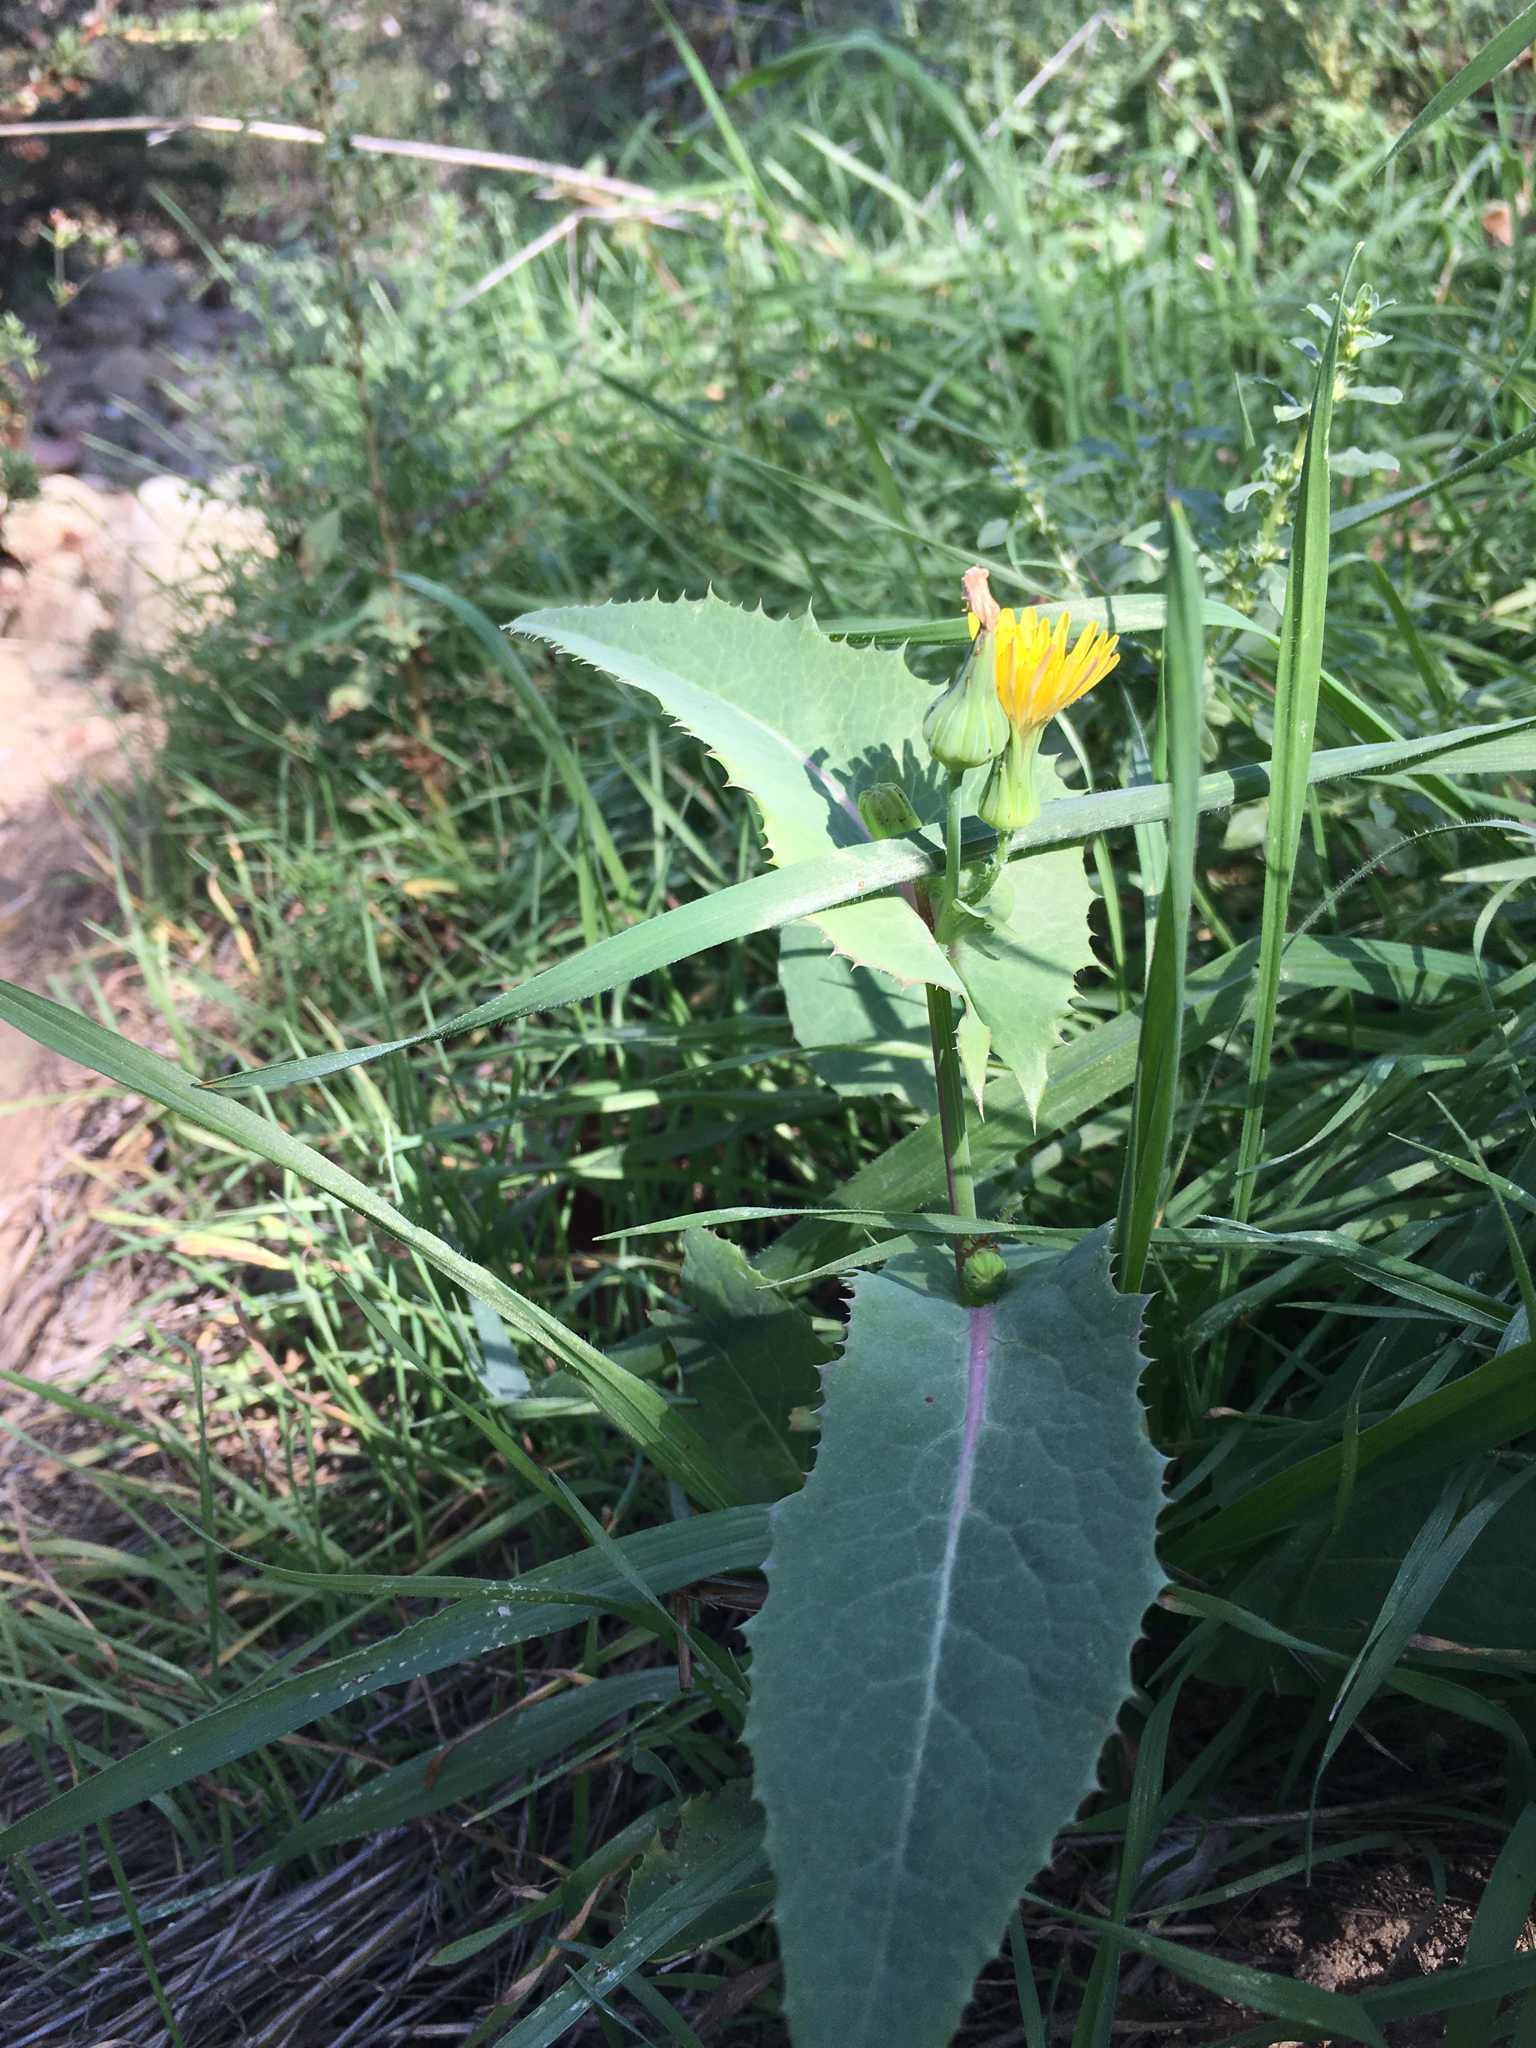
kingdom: Plantae
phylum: Tracheophyta
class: Magnoliopsida
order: Asterales
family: Asteraceae
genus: Sonchus
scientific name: Sonchus oleraceus
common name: Common sowthistle
